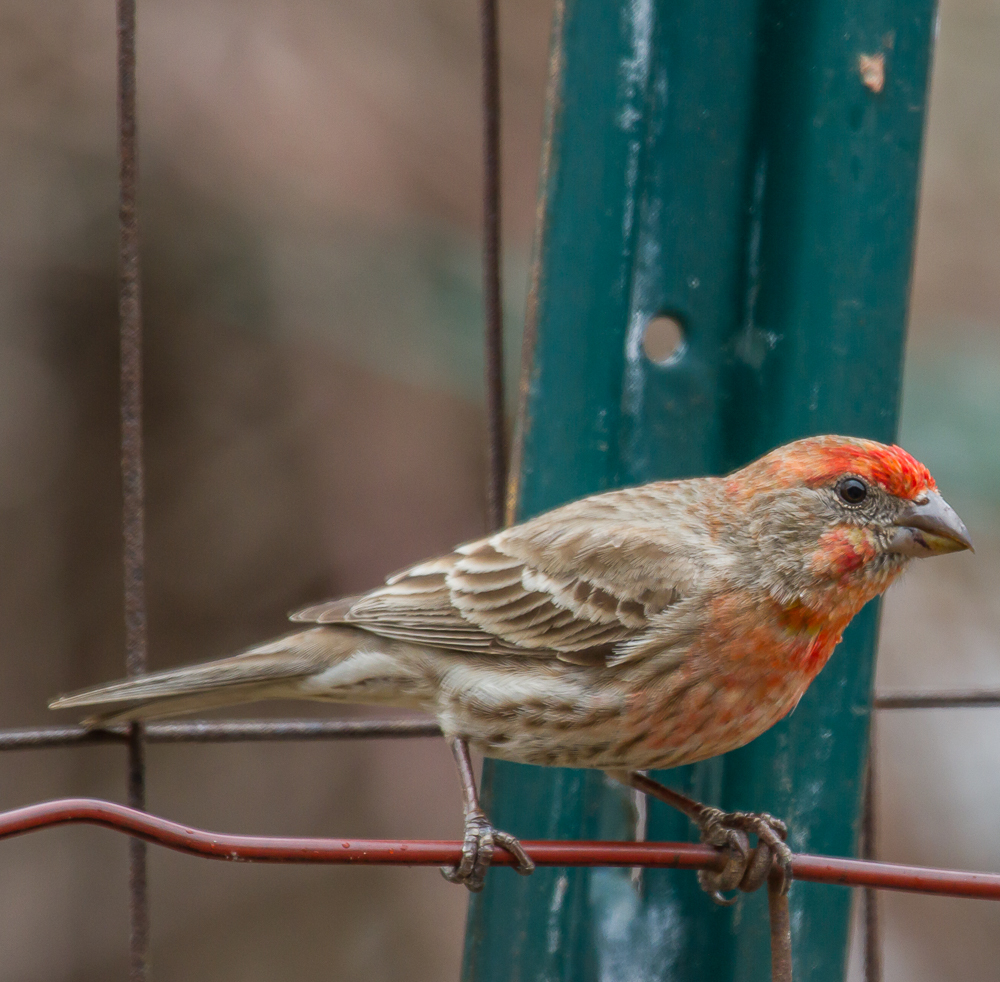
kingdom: Animalia
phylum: Chordata
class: Aves
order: Passeriformes
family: Fringillidae
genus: Haemorhous
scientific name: Haemorhous mexicanus
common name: House finch
